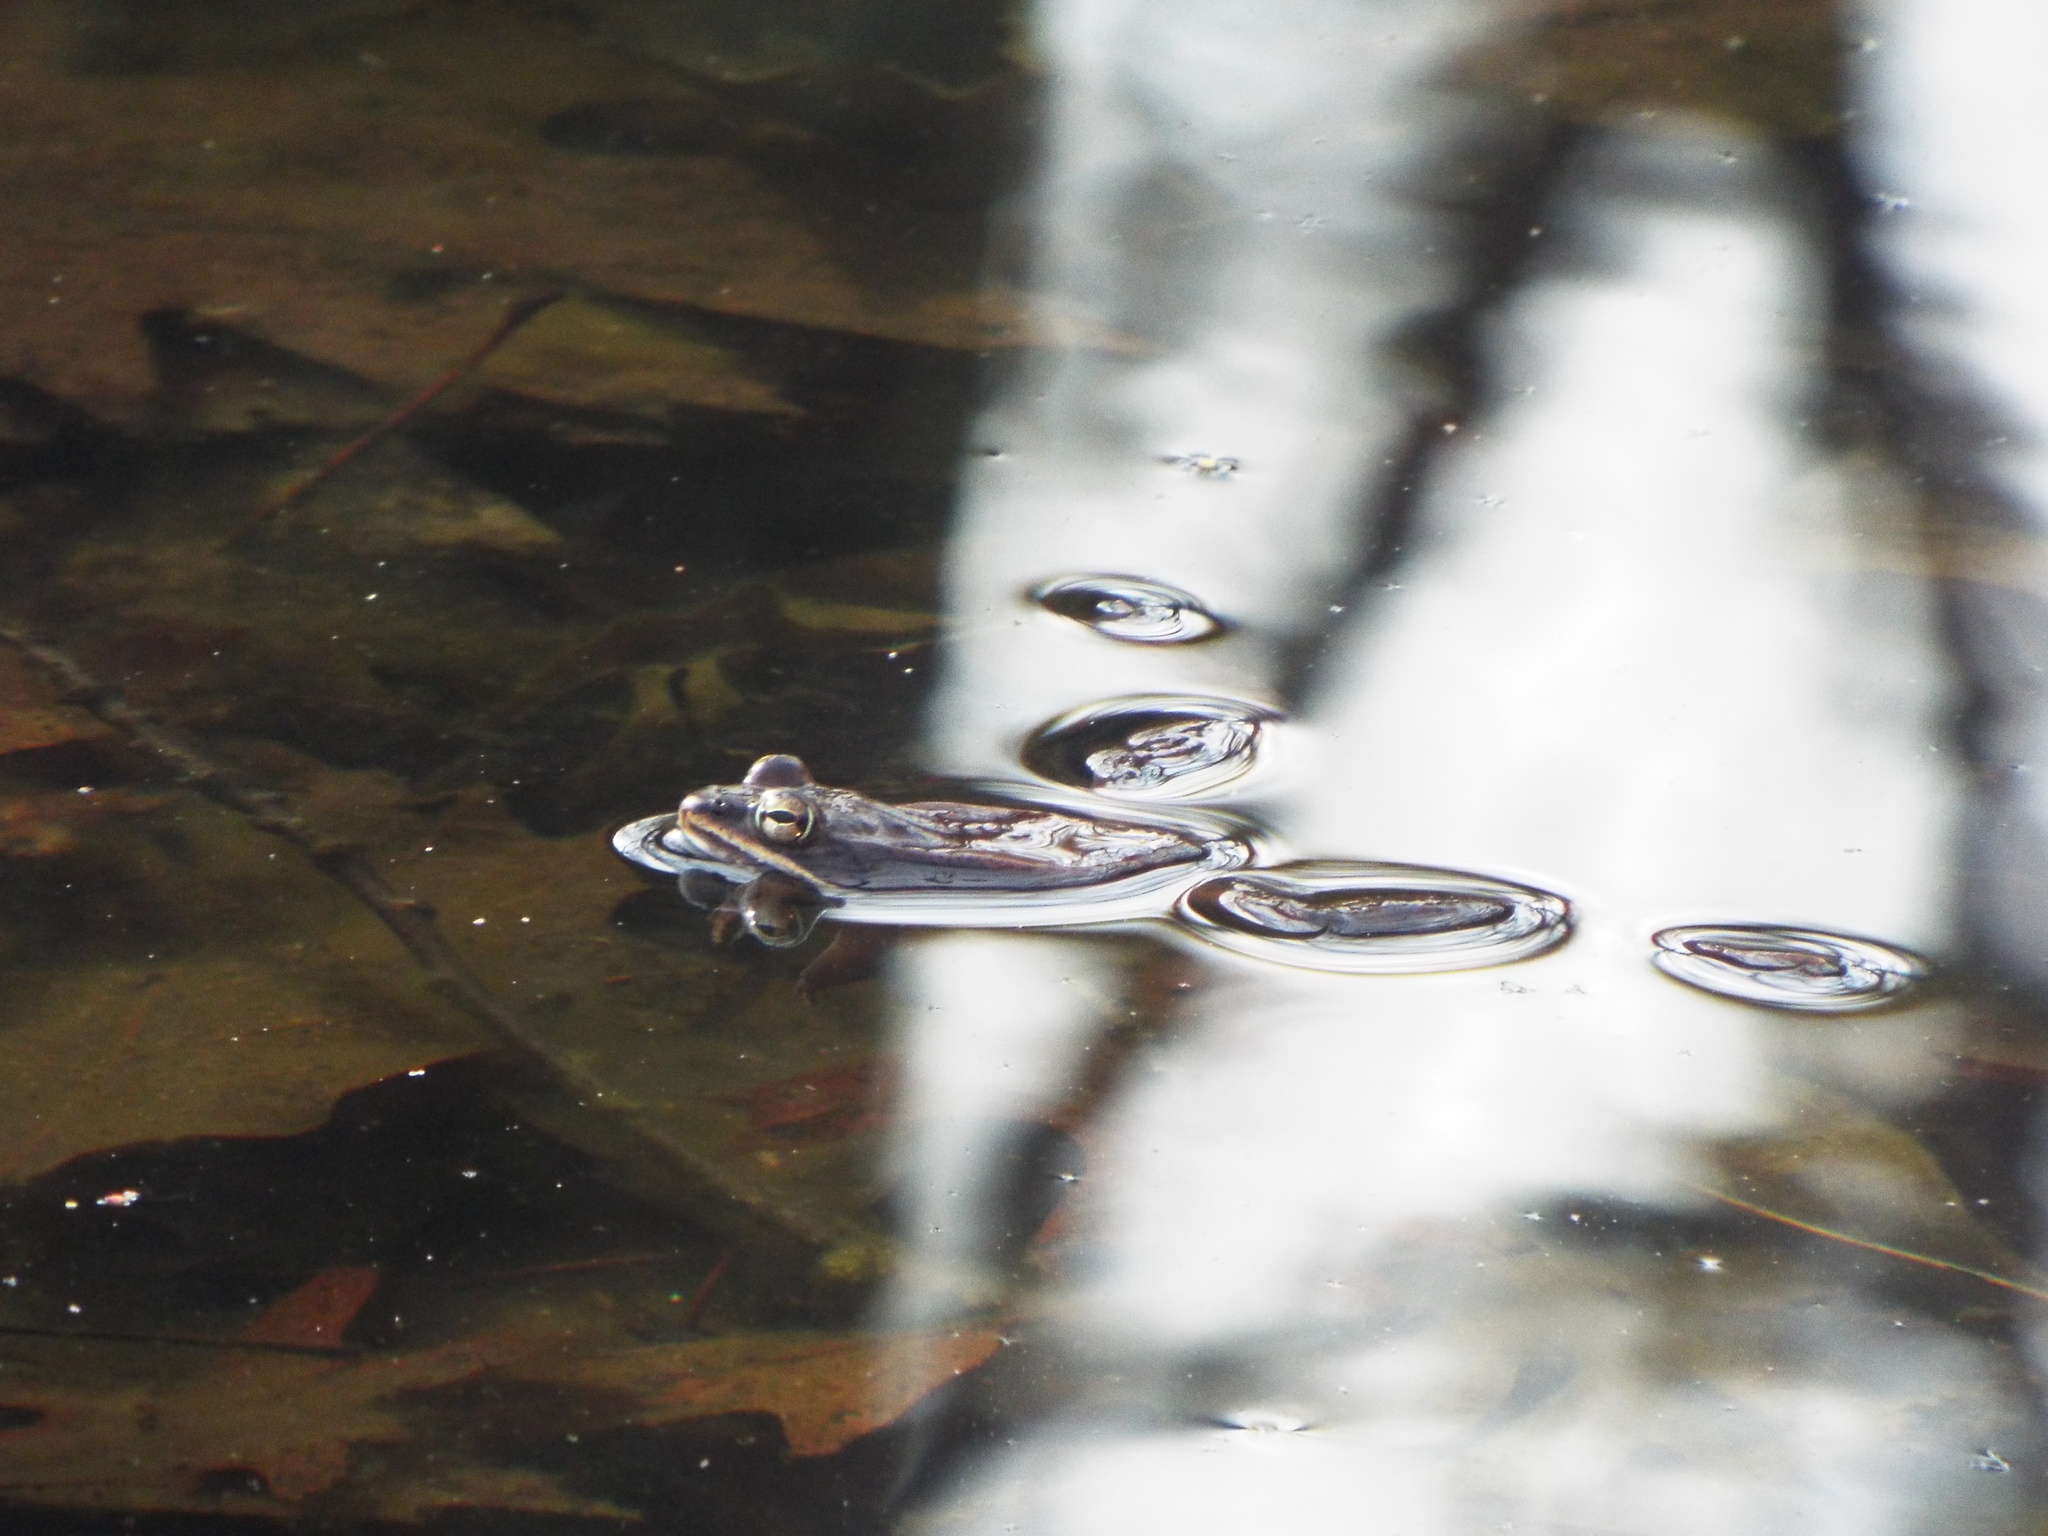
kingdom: Animalia
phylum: Chordata
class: Amphibia
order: Anura
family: Ranidae
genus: Lithobates
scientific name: Lithobates sylvaticus
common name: Wood frog
